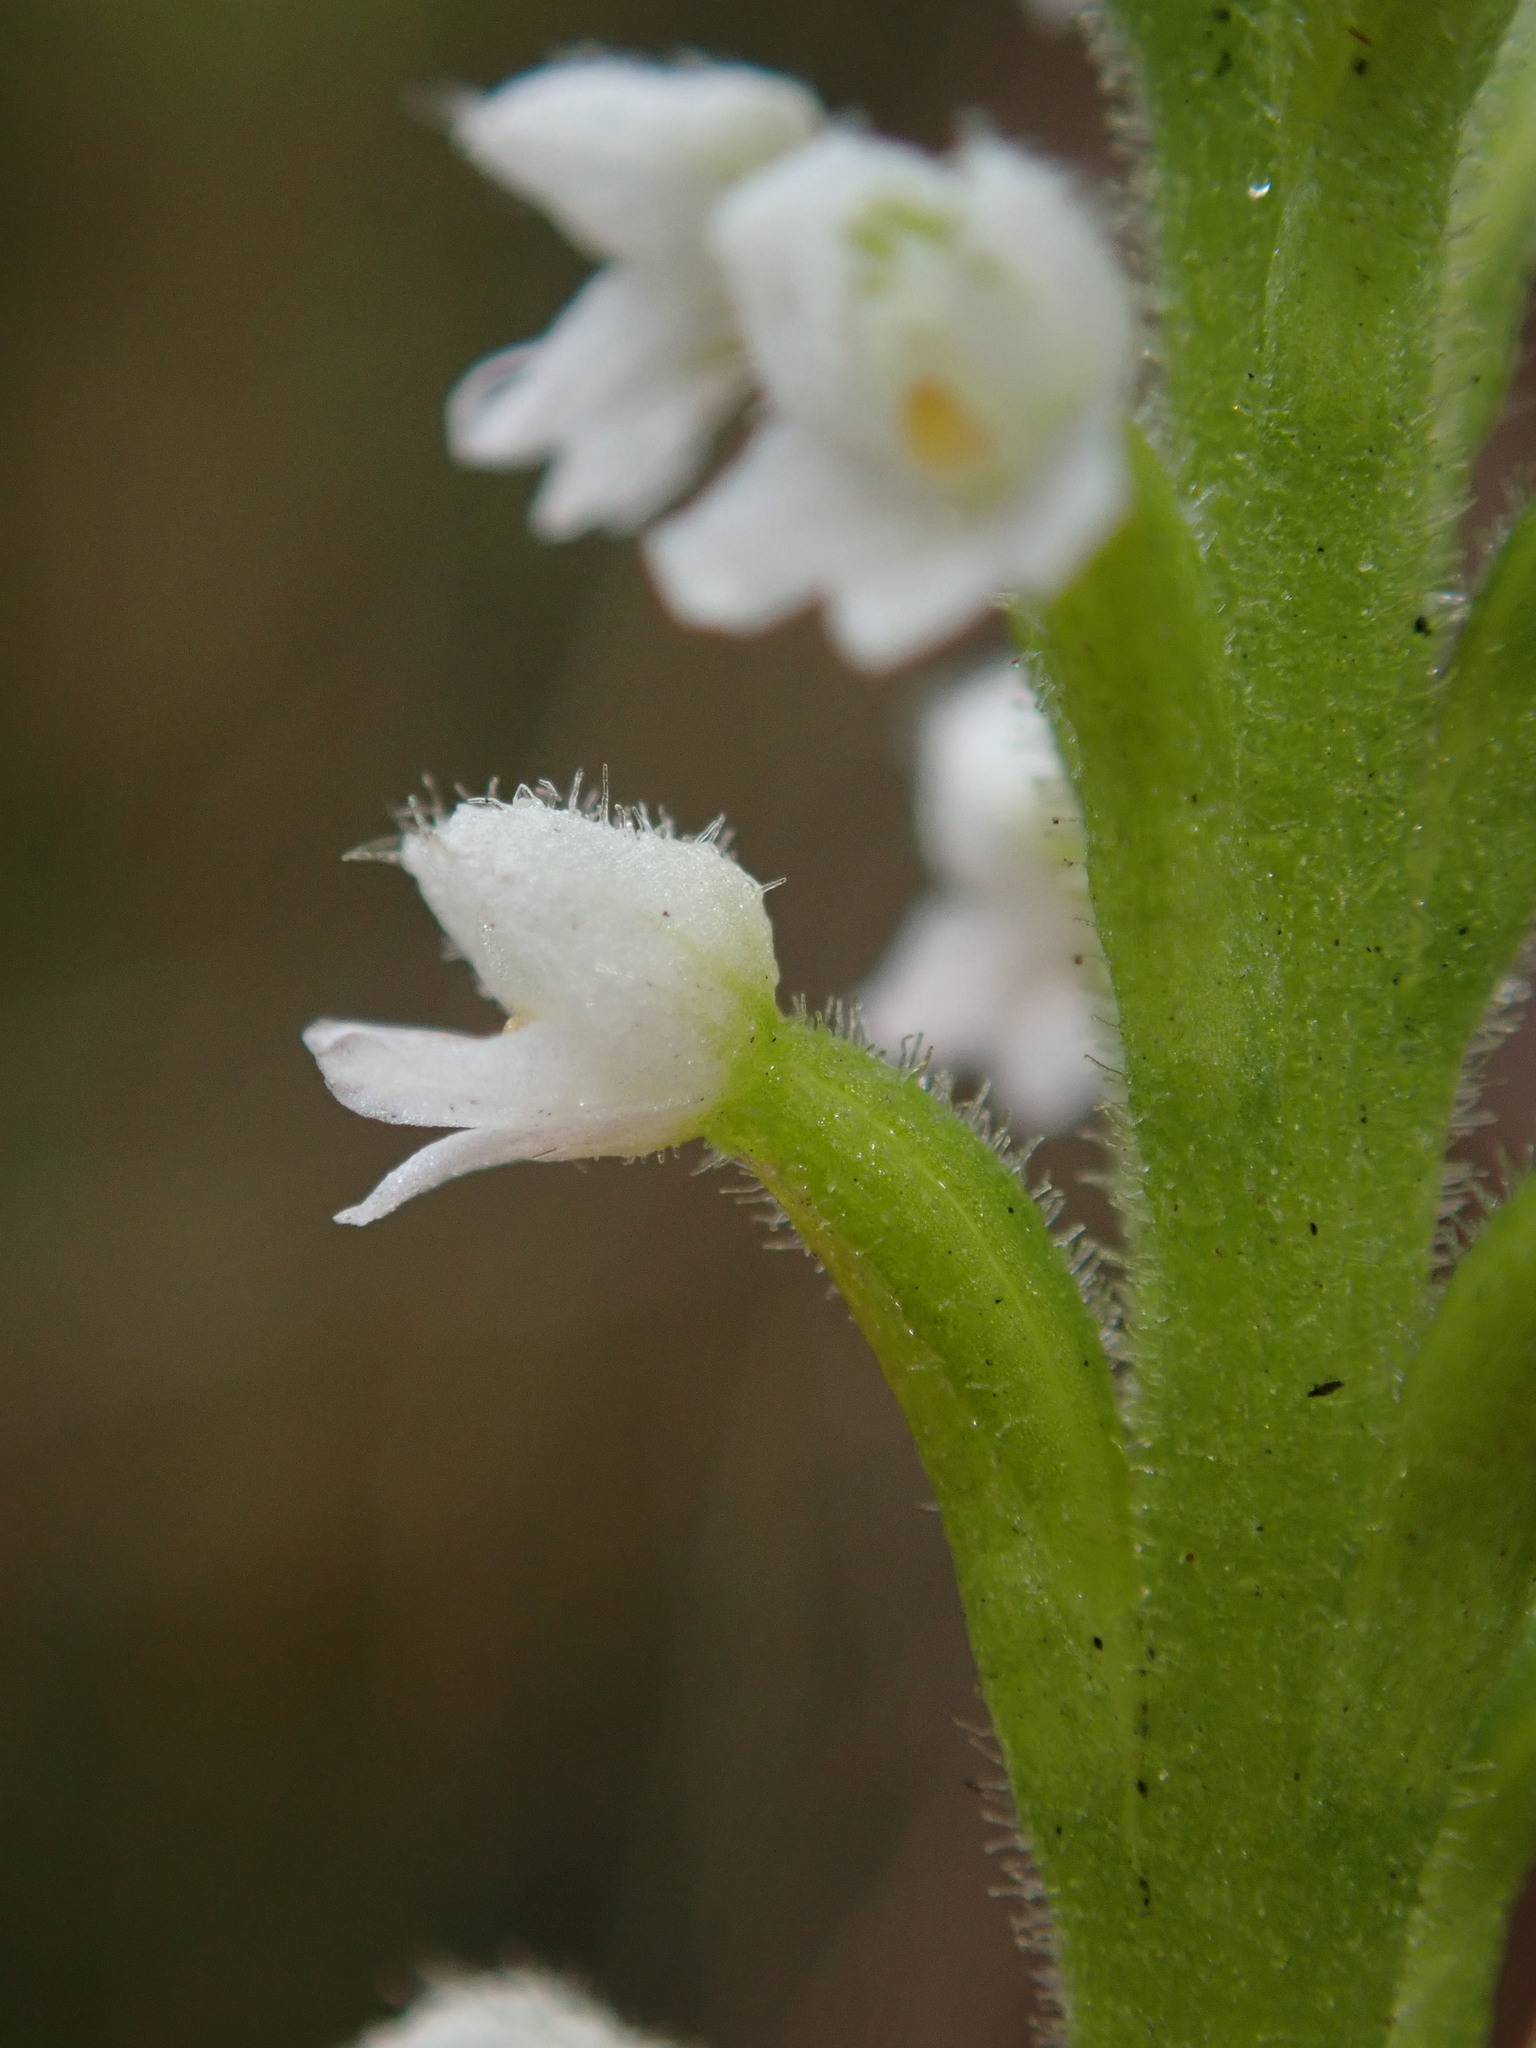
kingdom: Plantae
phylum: Tracheophyta
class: Liliopsida
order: Asparagales
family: Orchidaceae
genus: Ponthieva
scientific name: Ponthieva fertilis
